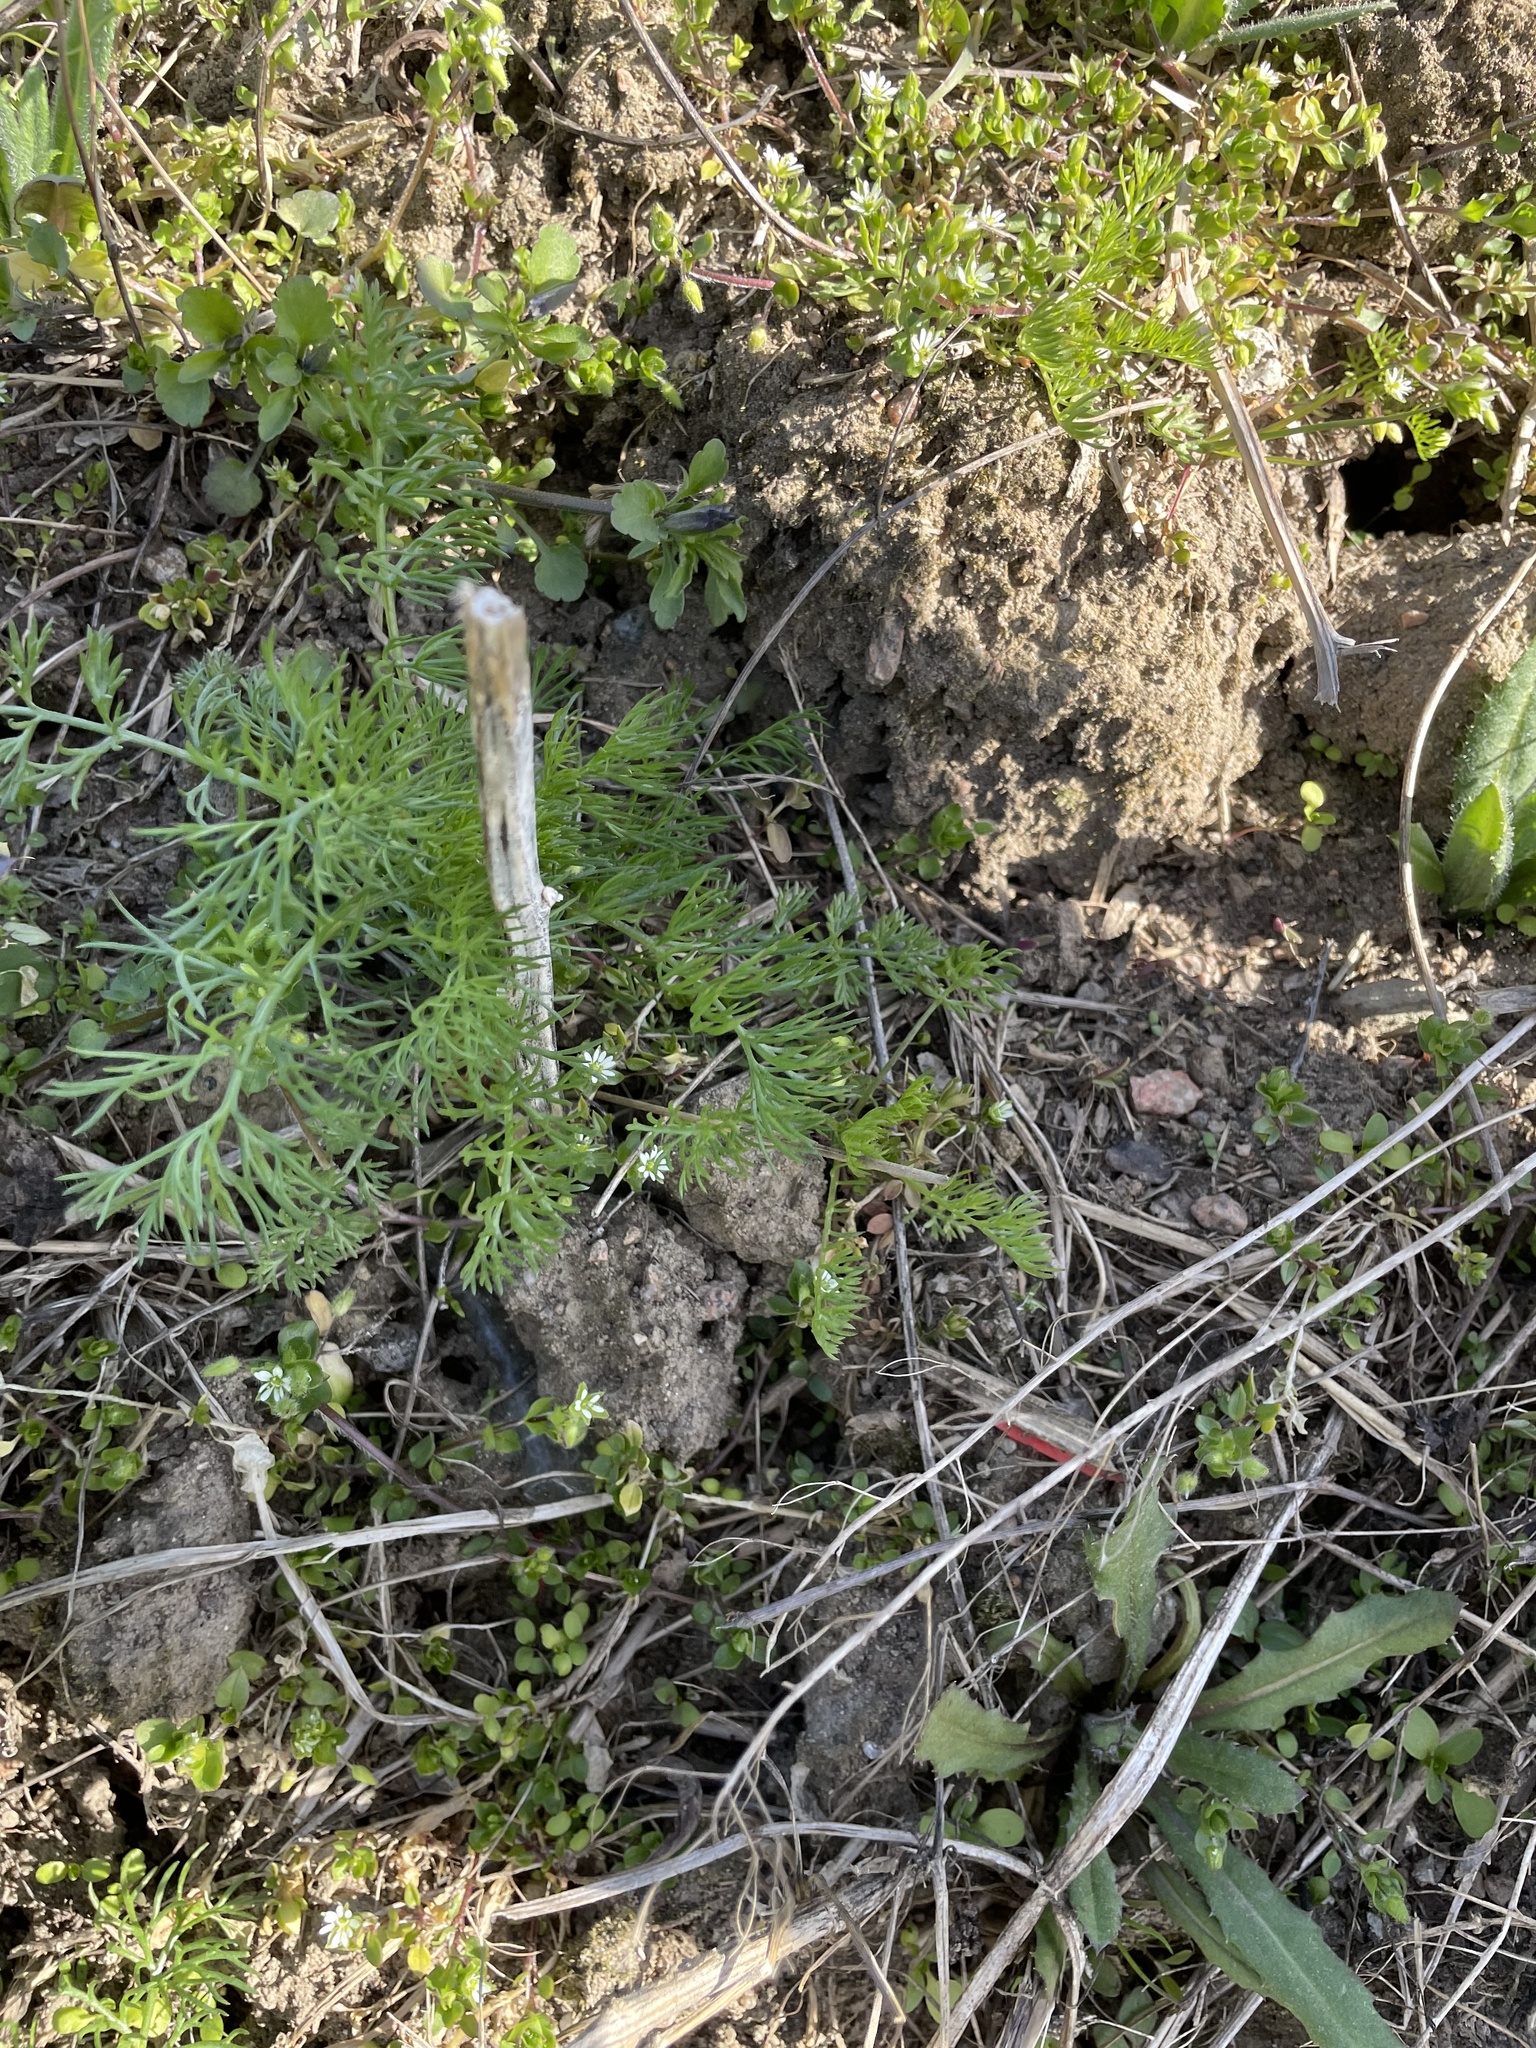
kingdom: Plantae
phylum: Tracheophyta
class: Magnoliopsida
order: Asterales
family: Asteraceae
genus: Tripleurospermum
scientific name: Tripleurospermum inodorum
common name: Scentless mayweed
